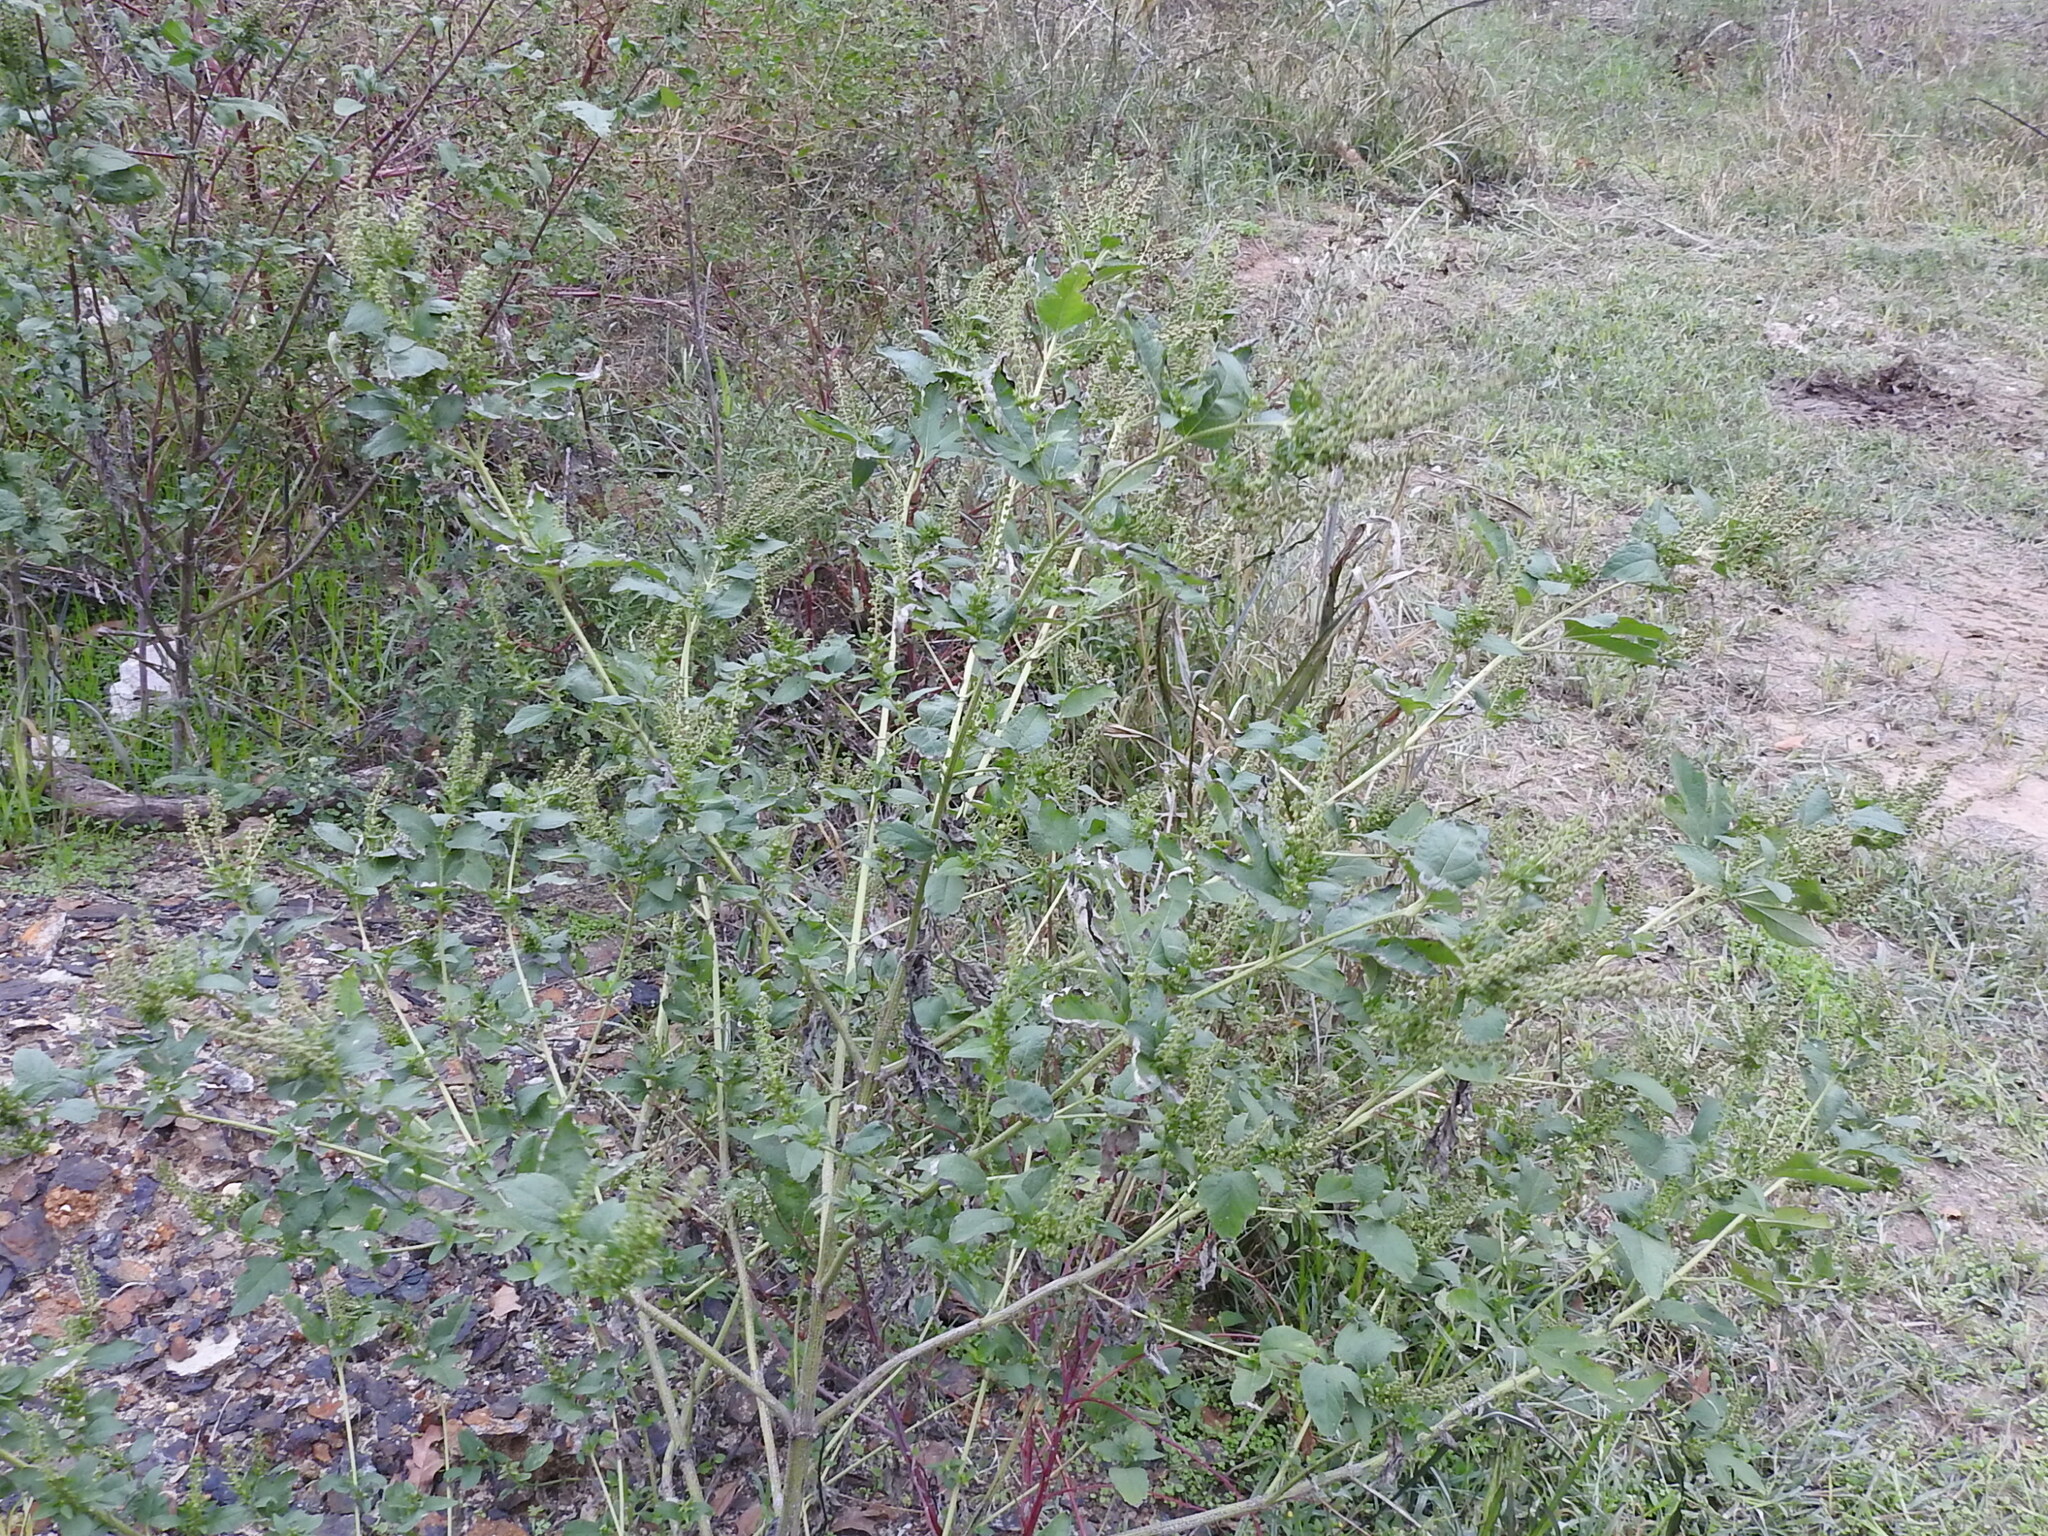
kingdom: Plantae
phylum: Tracheophyta
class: Magnoliopsida
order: Asterales
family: Asteraceae
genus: Ambrosia
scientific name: Ambrosia trifida
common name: Giant ragweed
